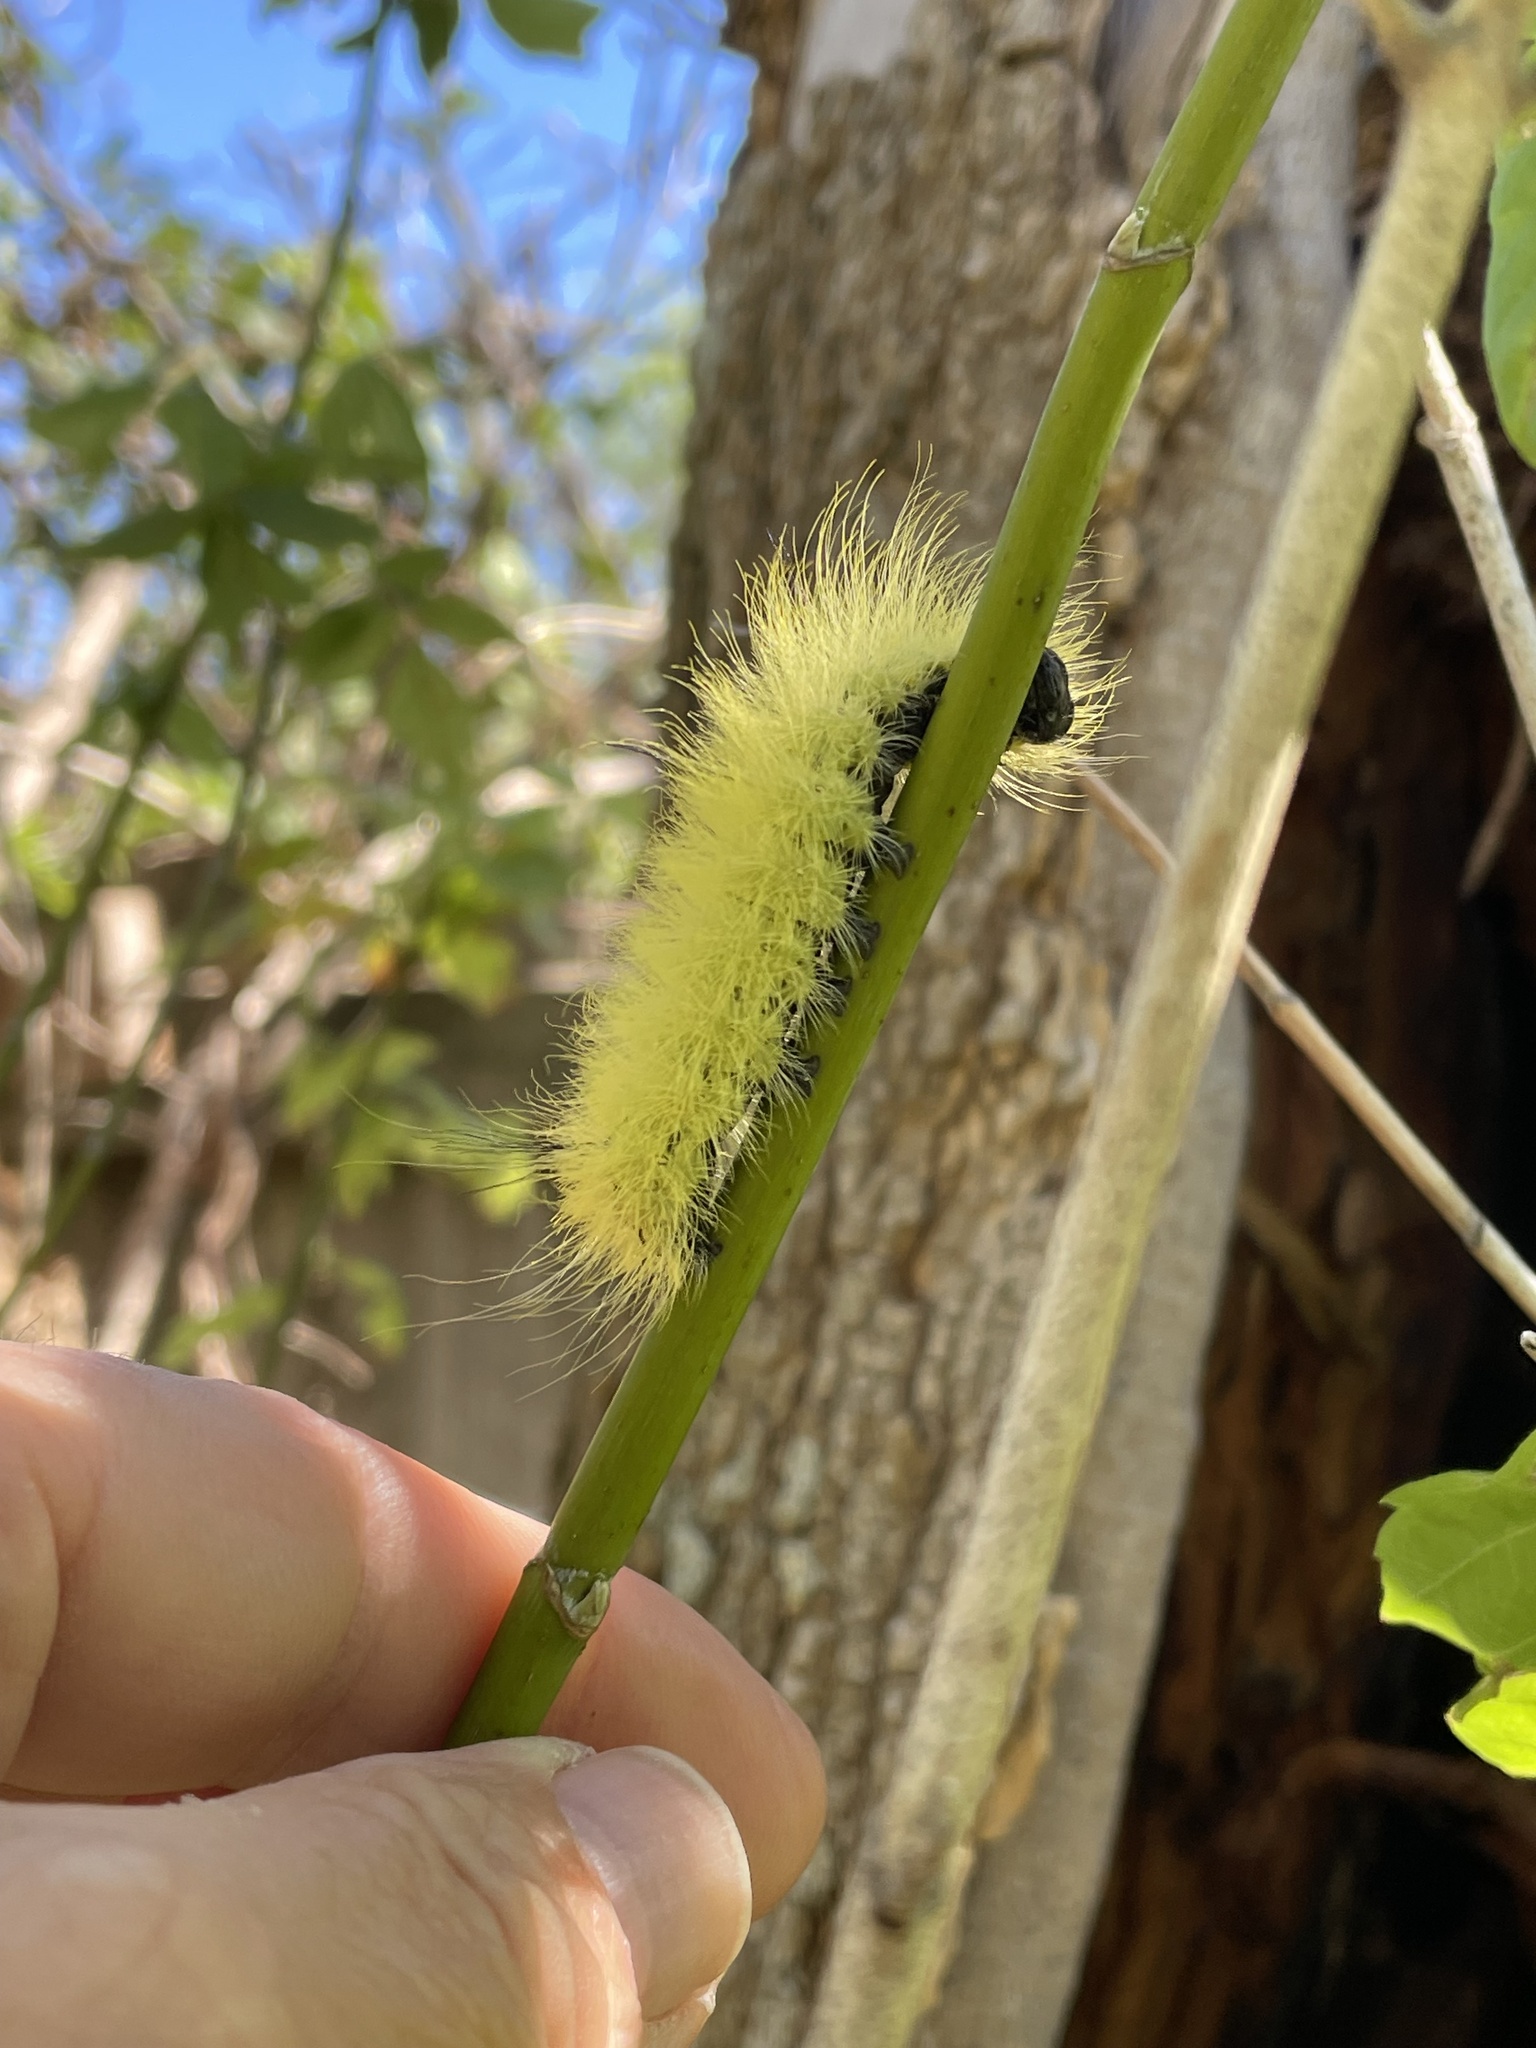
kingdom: Animalia
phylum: Arthropoda
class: Insecta
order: Lepidoptera
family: Noctuidae
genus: Acronicta
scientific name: Acronicta americana
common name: American dagger
